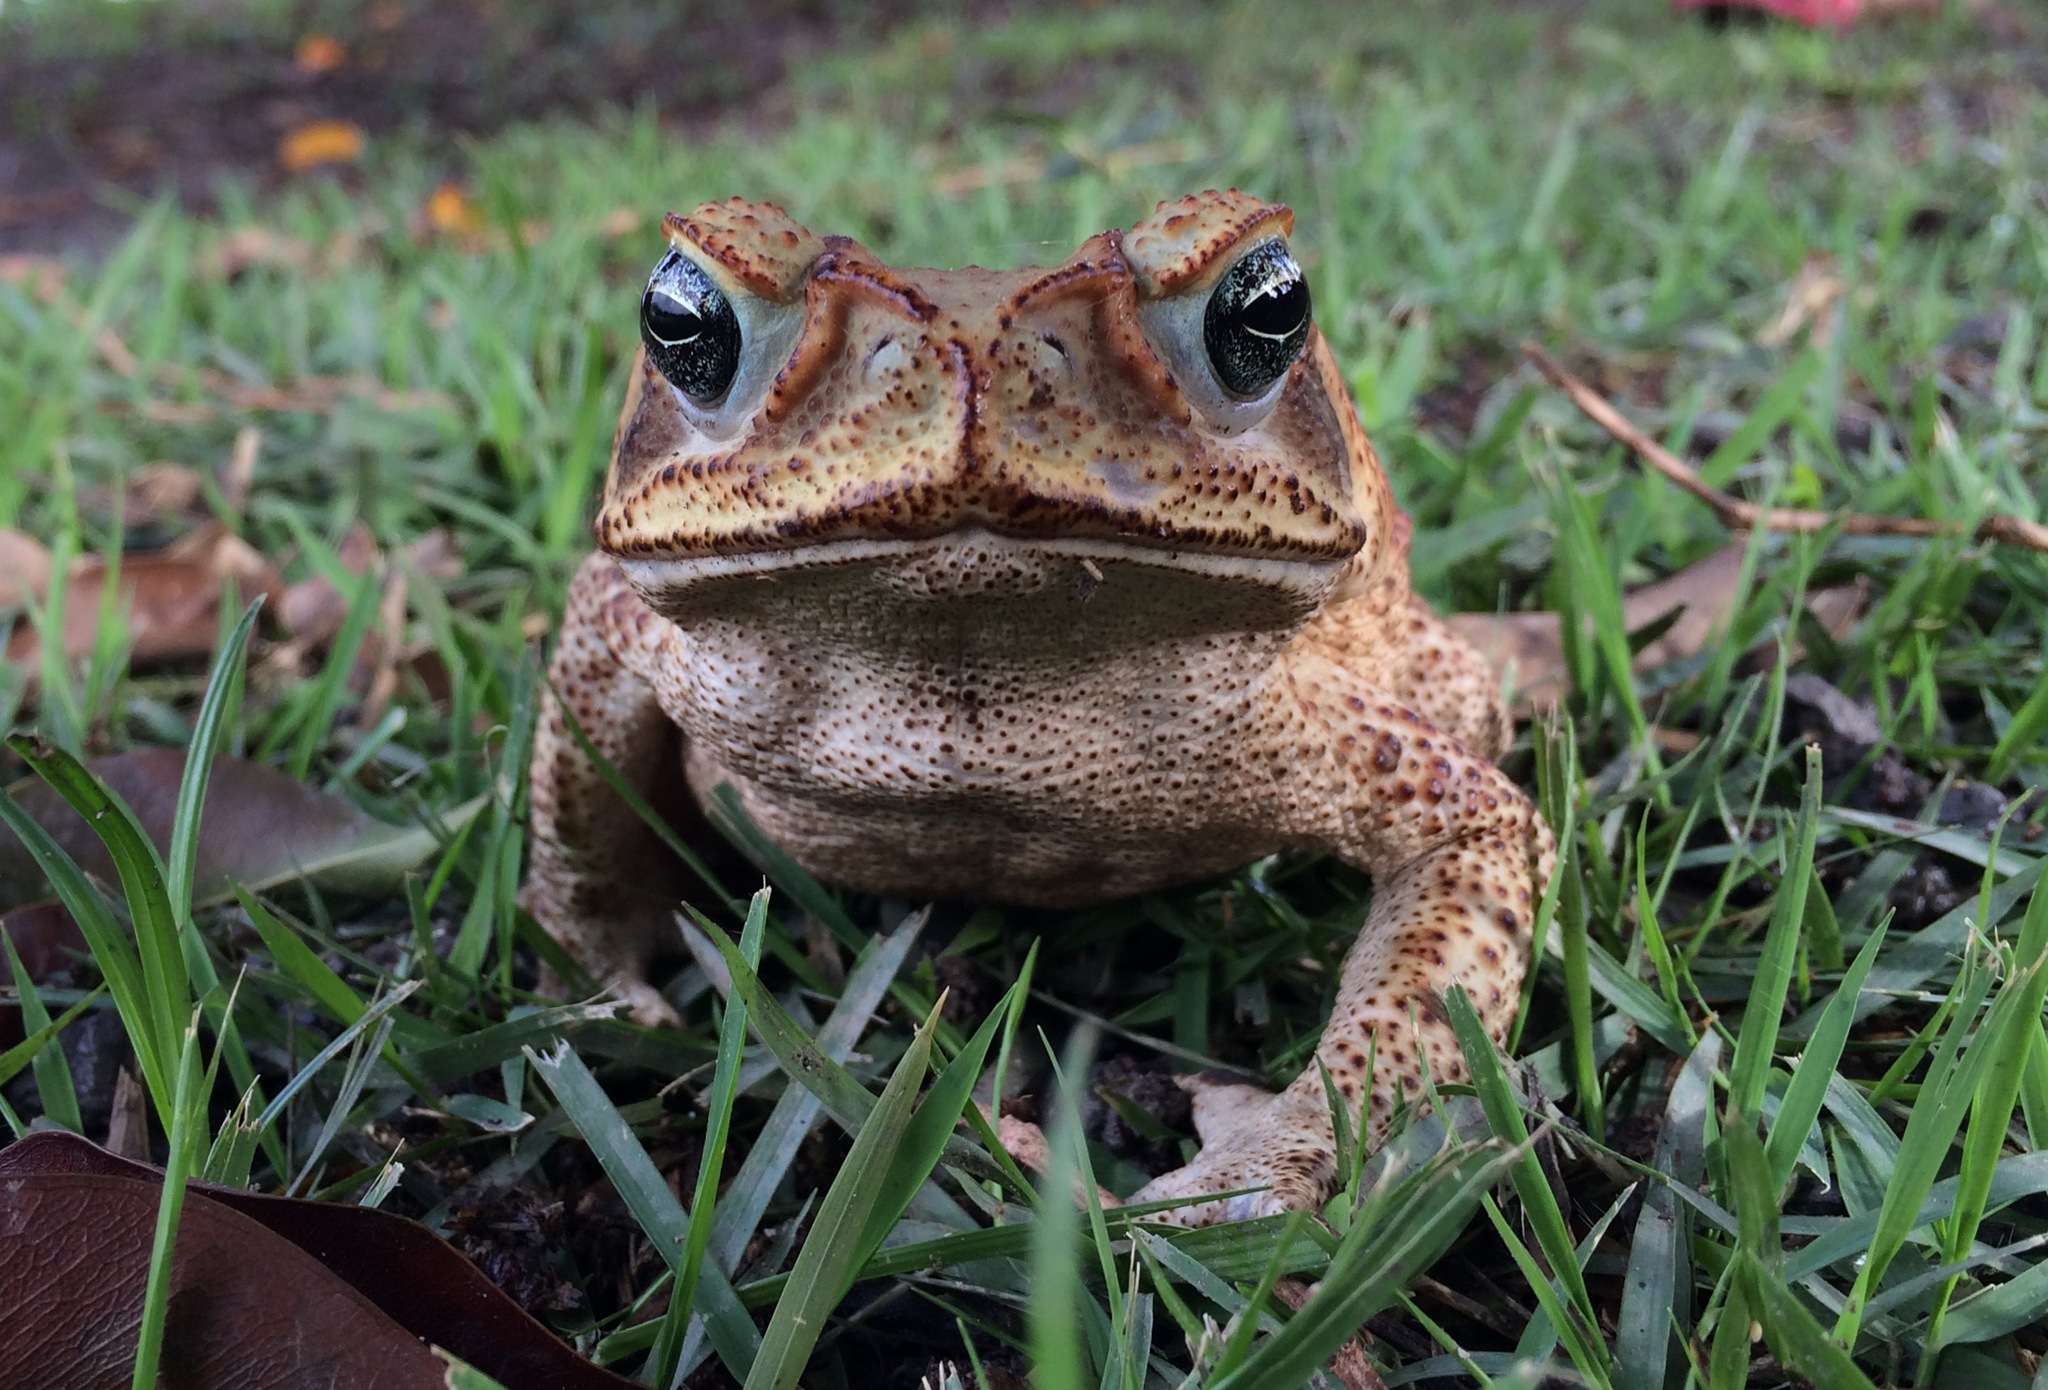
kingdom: Animalia
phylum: Chordata
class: Amphibia
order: Anura
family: Bufonidae
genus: Rhinella
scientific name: Rhinella diptycha
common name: Cope's toad
